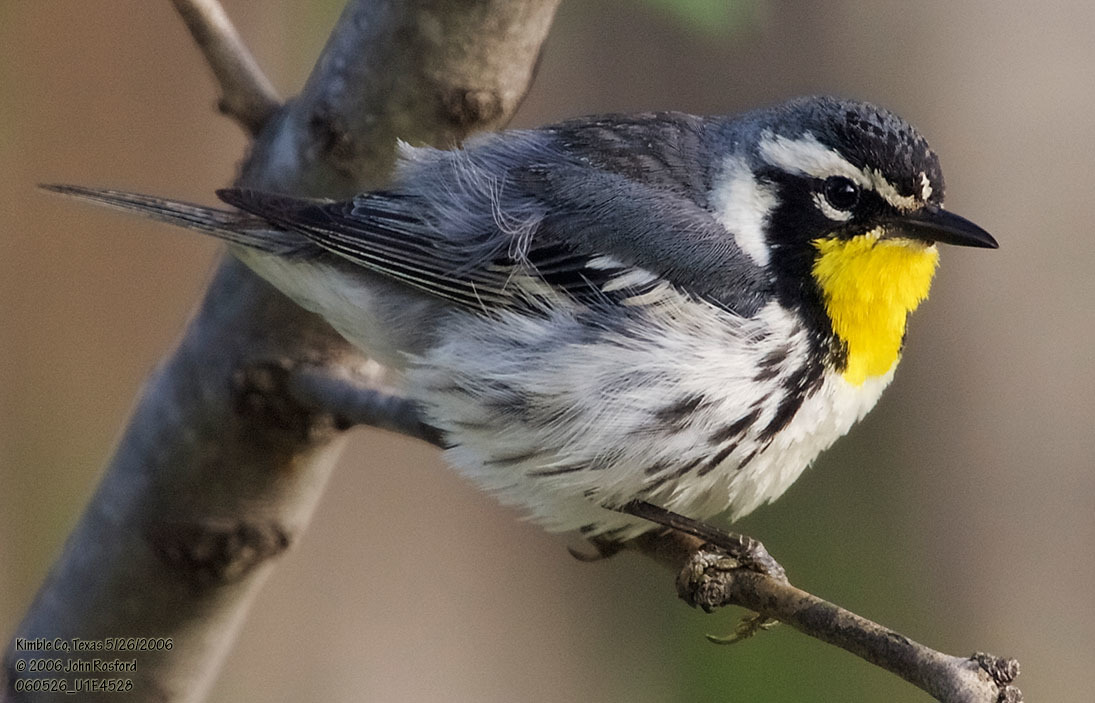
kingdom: Animalia
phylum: Chordata
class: Aves
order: Passeriformes
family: Parulidae
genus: Setophaga
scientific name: Setophaga dominica
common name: Yellow-throated warbler
